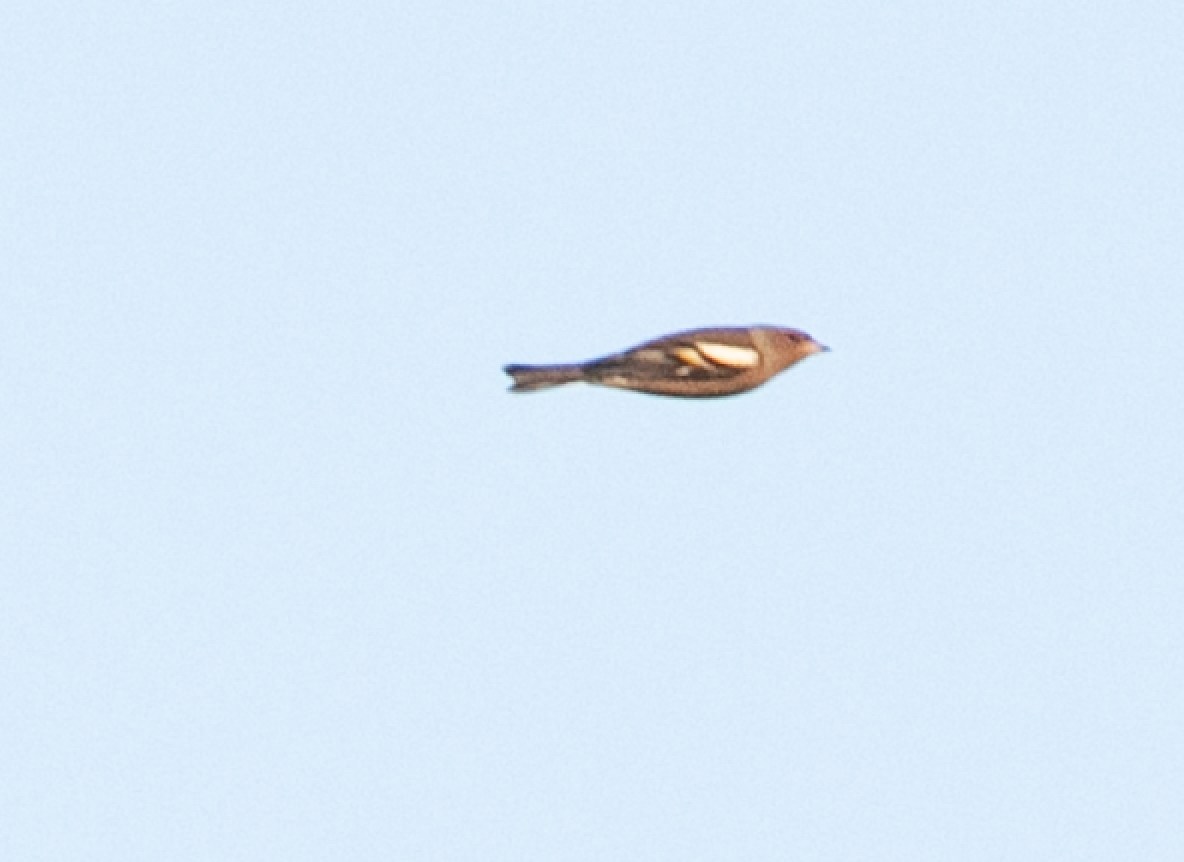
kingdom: Animalia
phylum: Chordata
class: Aves
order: Passeriformes
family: Fringillidae
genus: Fringilla
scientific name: Fringilla coelebs
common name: Common chaffinch
